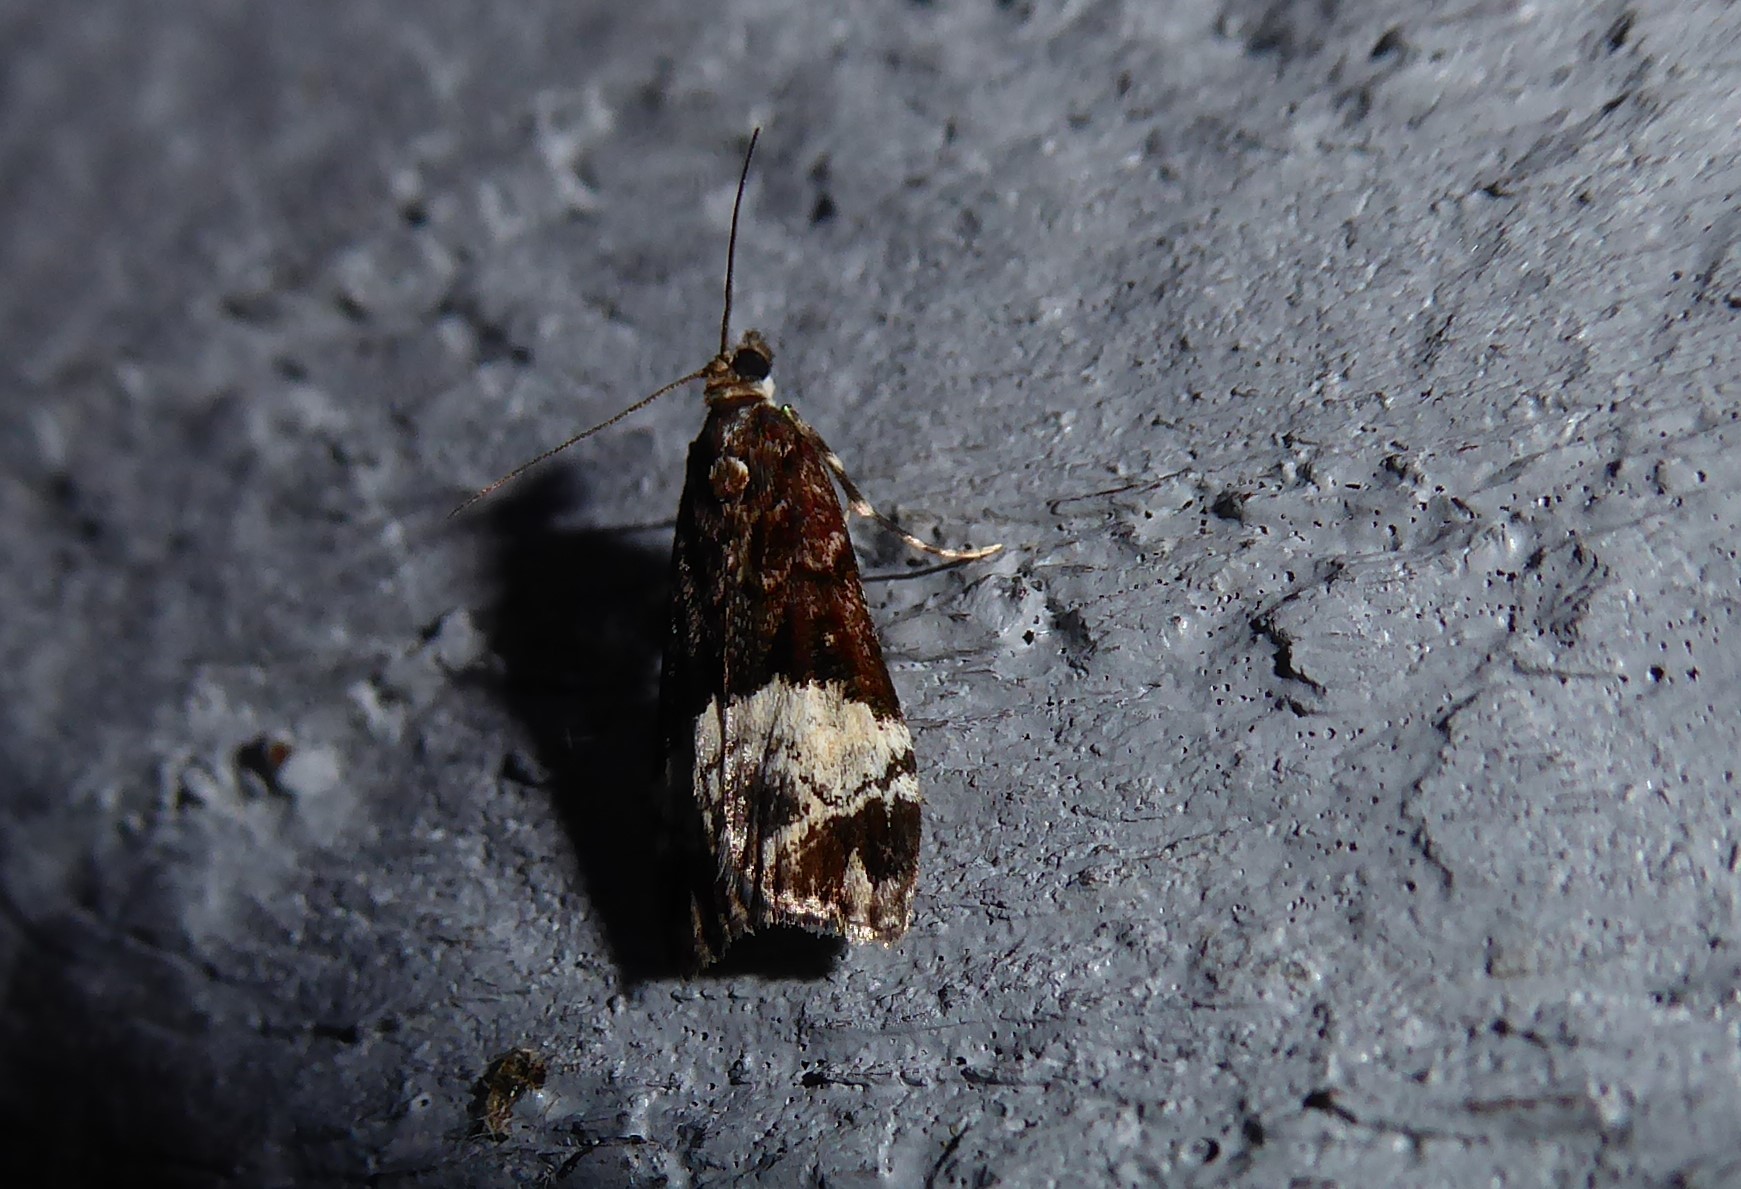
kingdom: Animalia
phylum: Arthropoda
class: Insecta
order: Lepidoptera
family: Crambidae
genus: Scoparia
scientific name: Scoparia minusculalis
